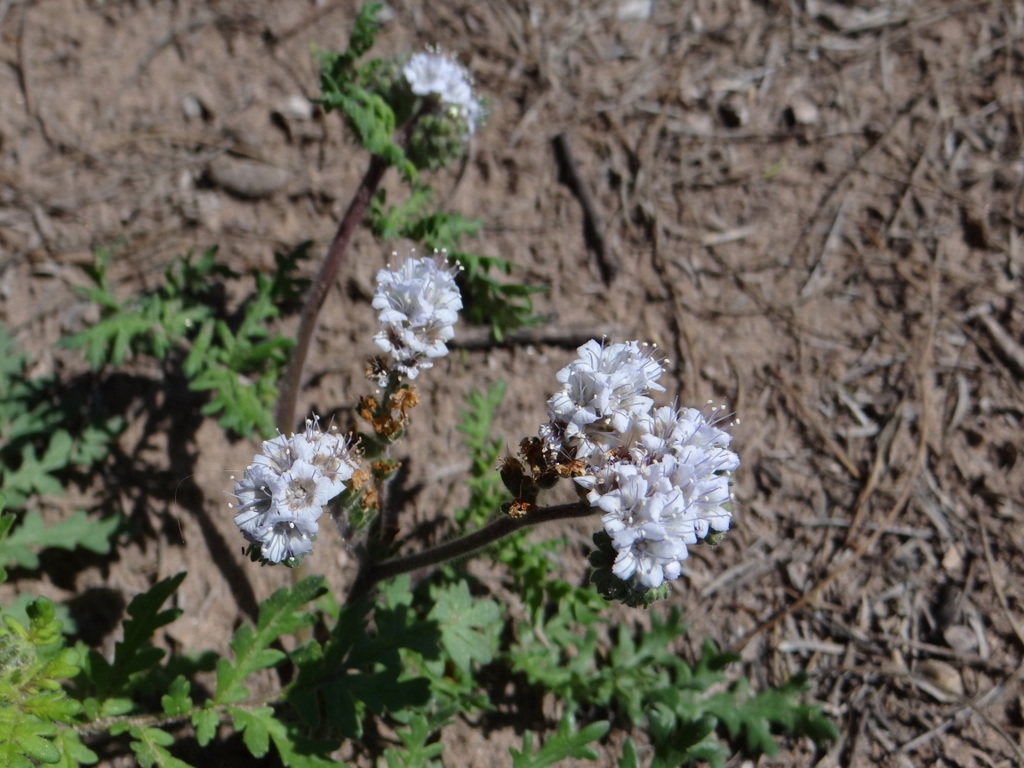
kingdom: Plantae
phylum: Tracheophyta
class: Magnoliopsida
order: Boraginales
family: Hydrophyllaceae
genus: Phacelia
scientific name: Phacelia artemisioides
